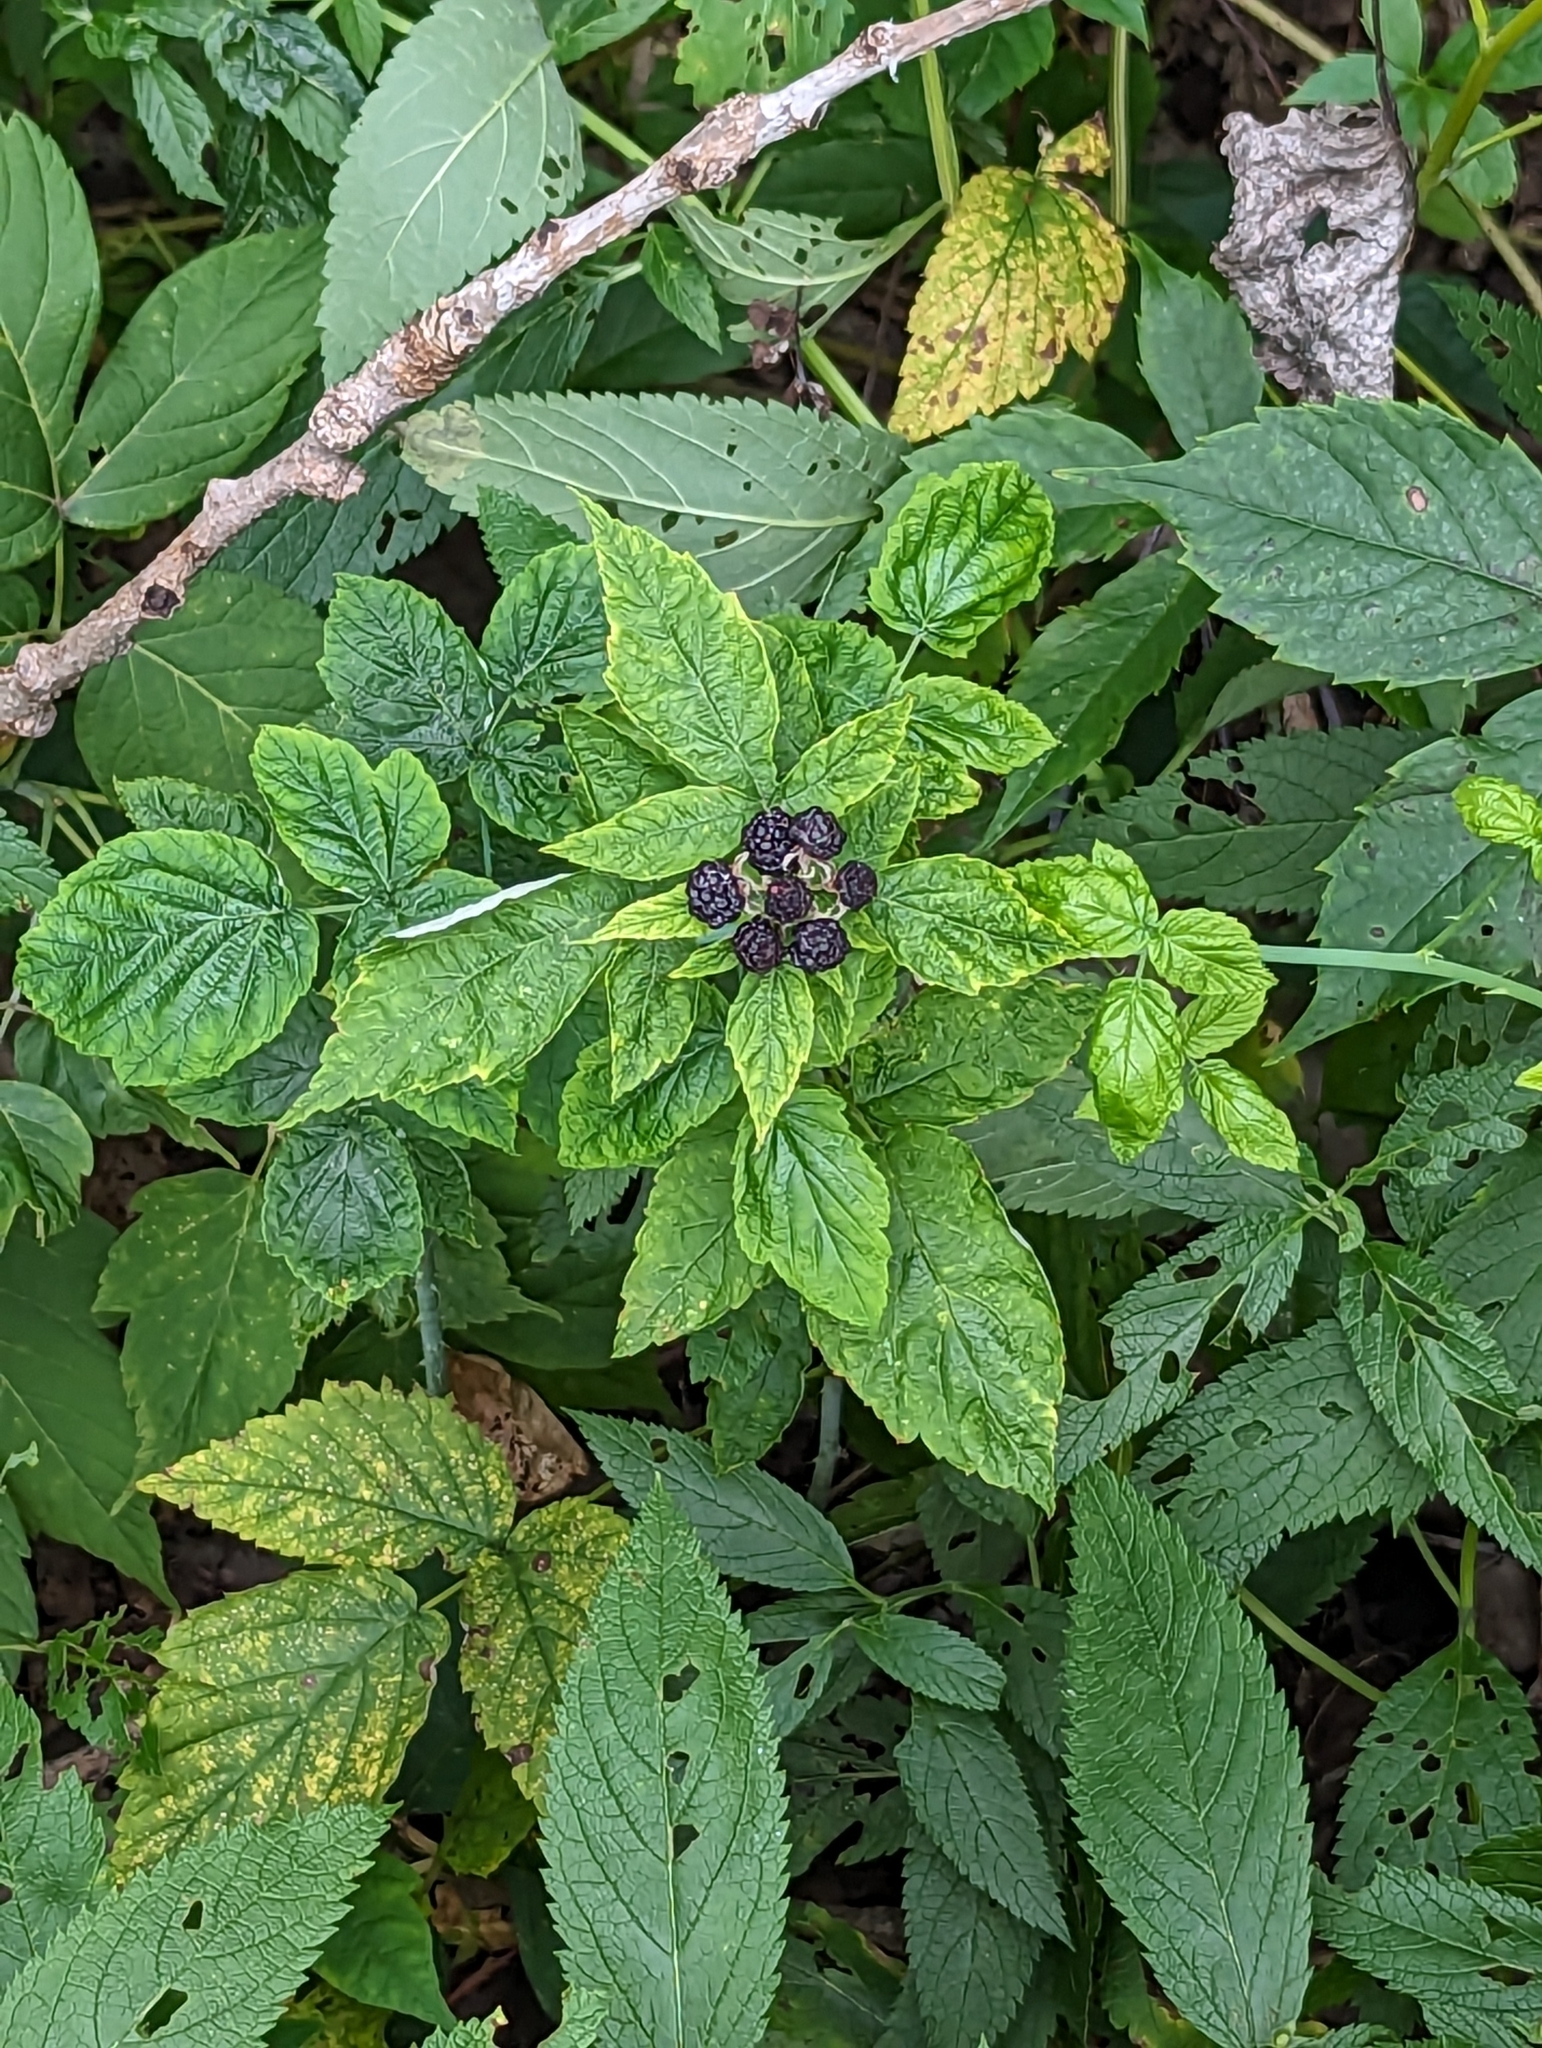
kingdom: Plantae
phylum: Tracheophyta
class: Magnoliopsida
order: Rosales
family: Rosaceae
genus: Rubus
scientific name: Rubus occidentalis
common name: Black raspberry
